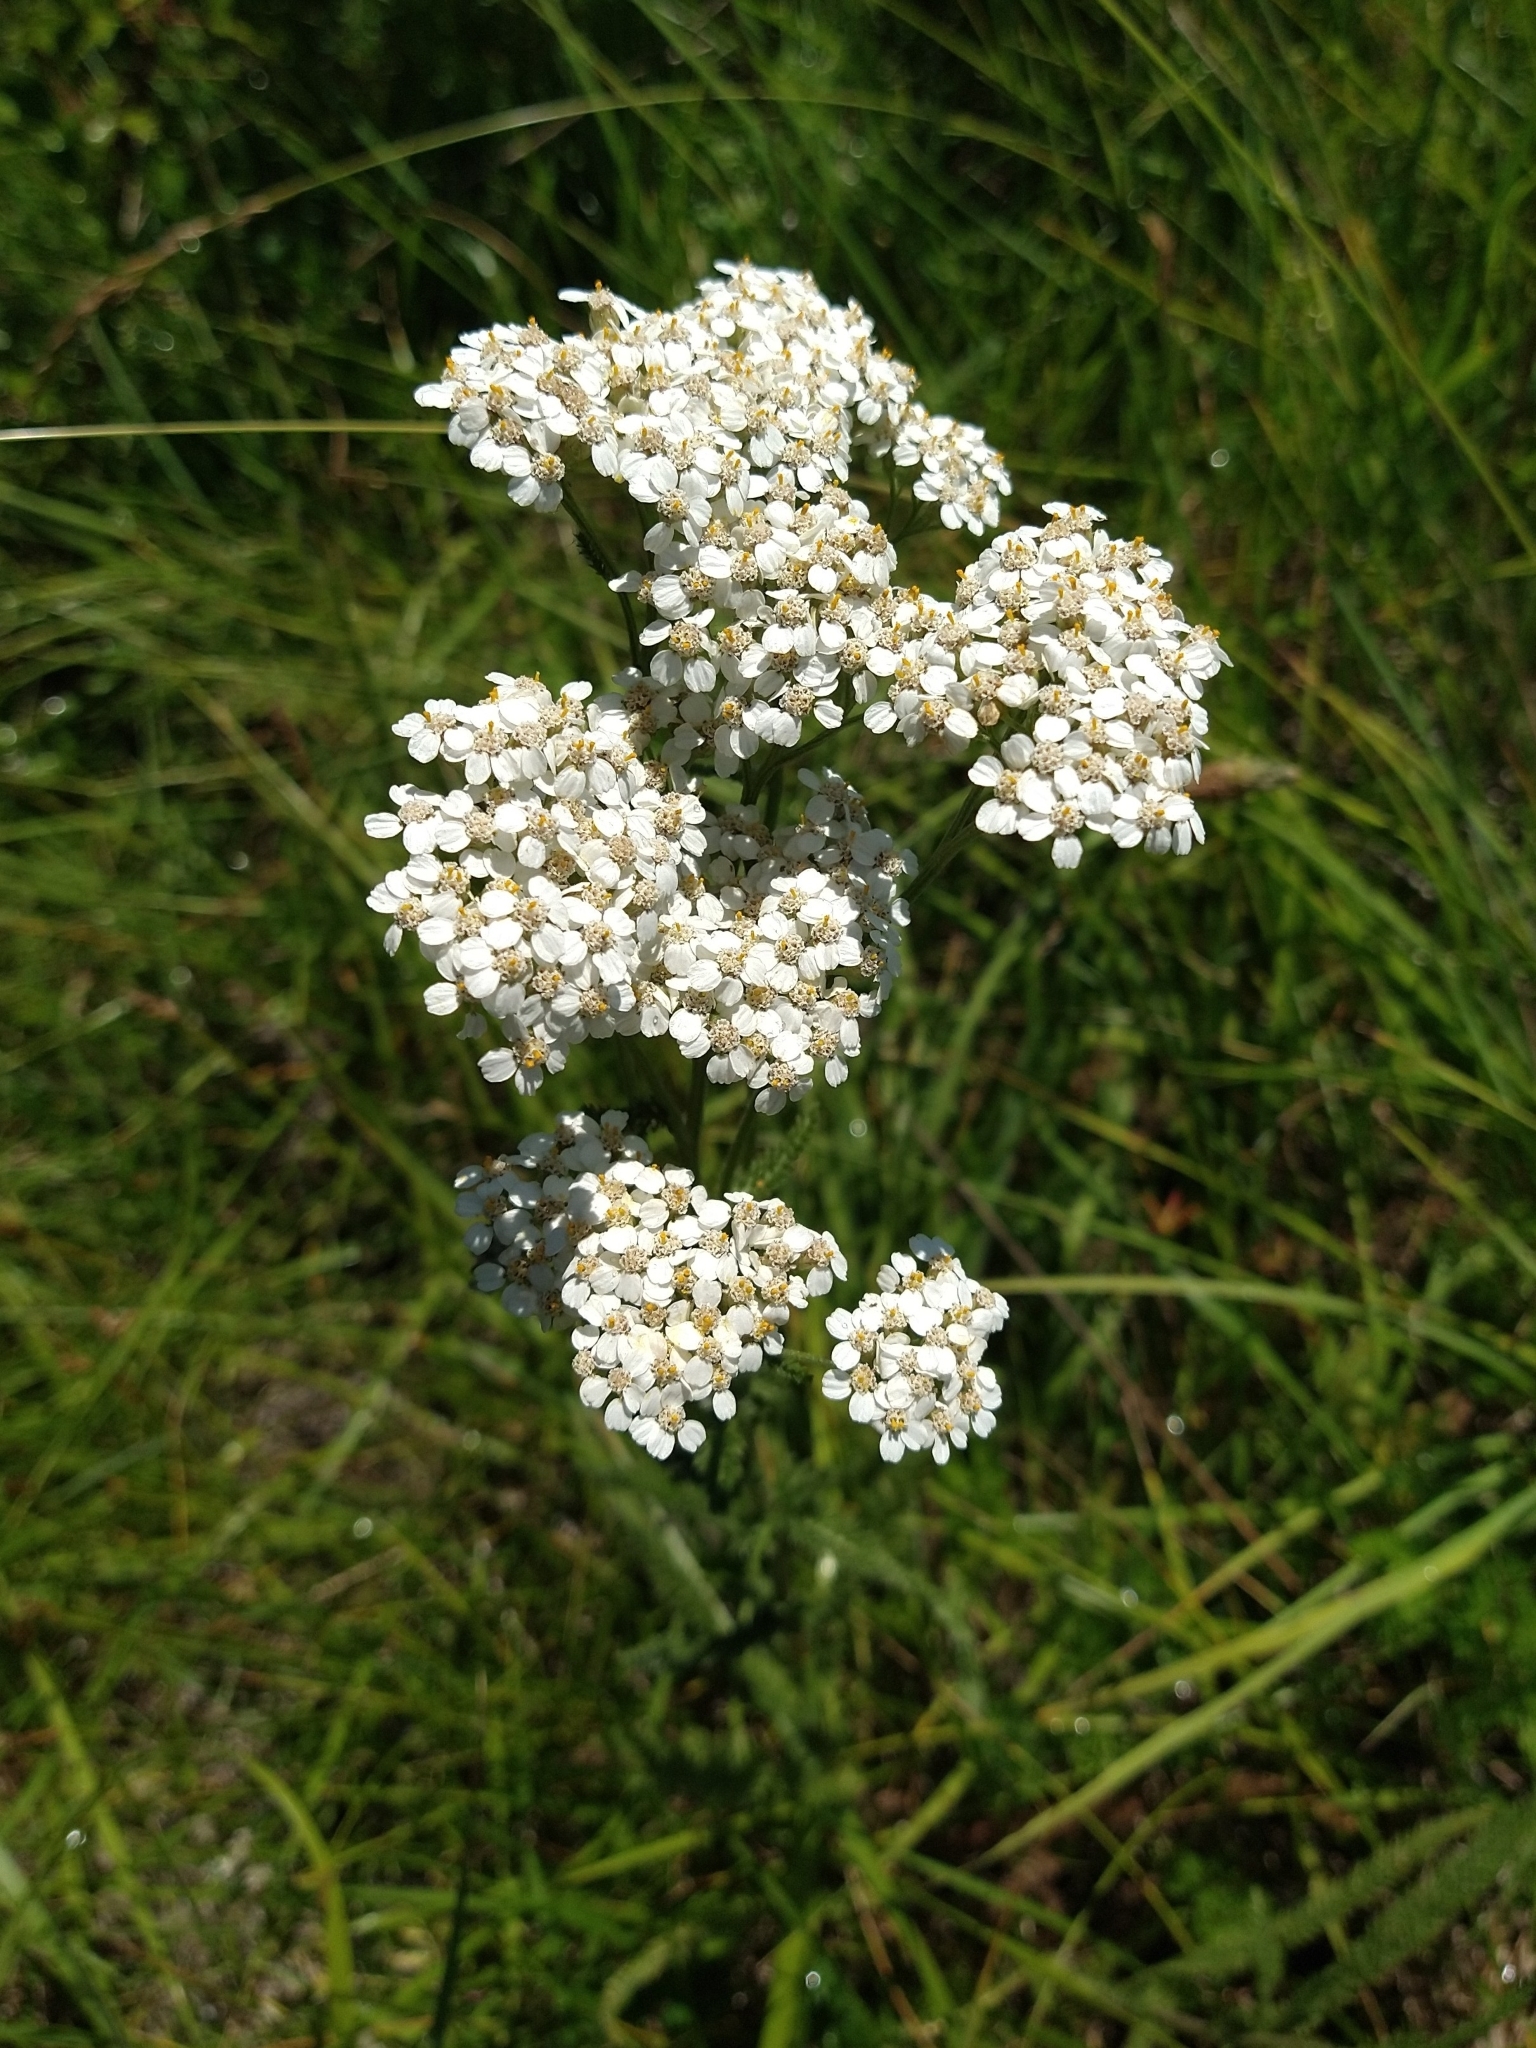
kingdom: Plantae
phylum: Tracheophyta
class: Magnoliopsida
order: Asterales
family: Asteraceae
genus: Achillea
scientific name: Achillea millefolium
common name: Yarrow
